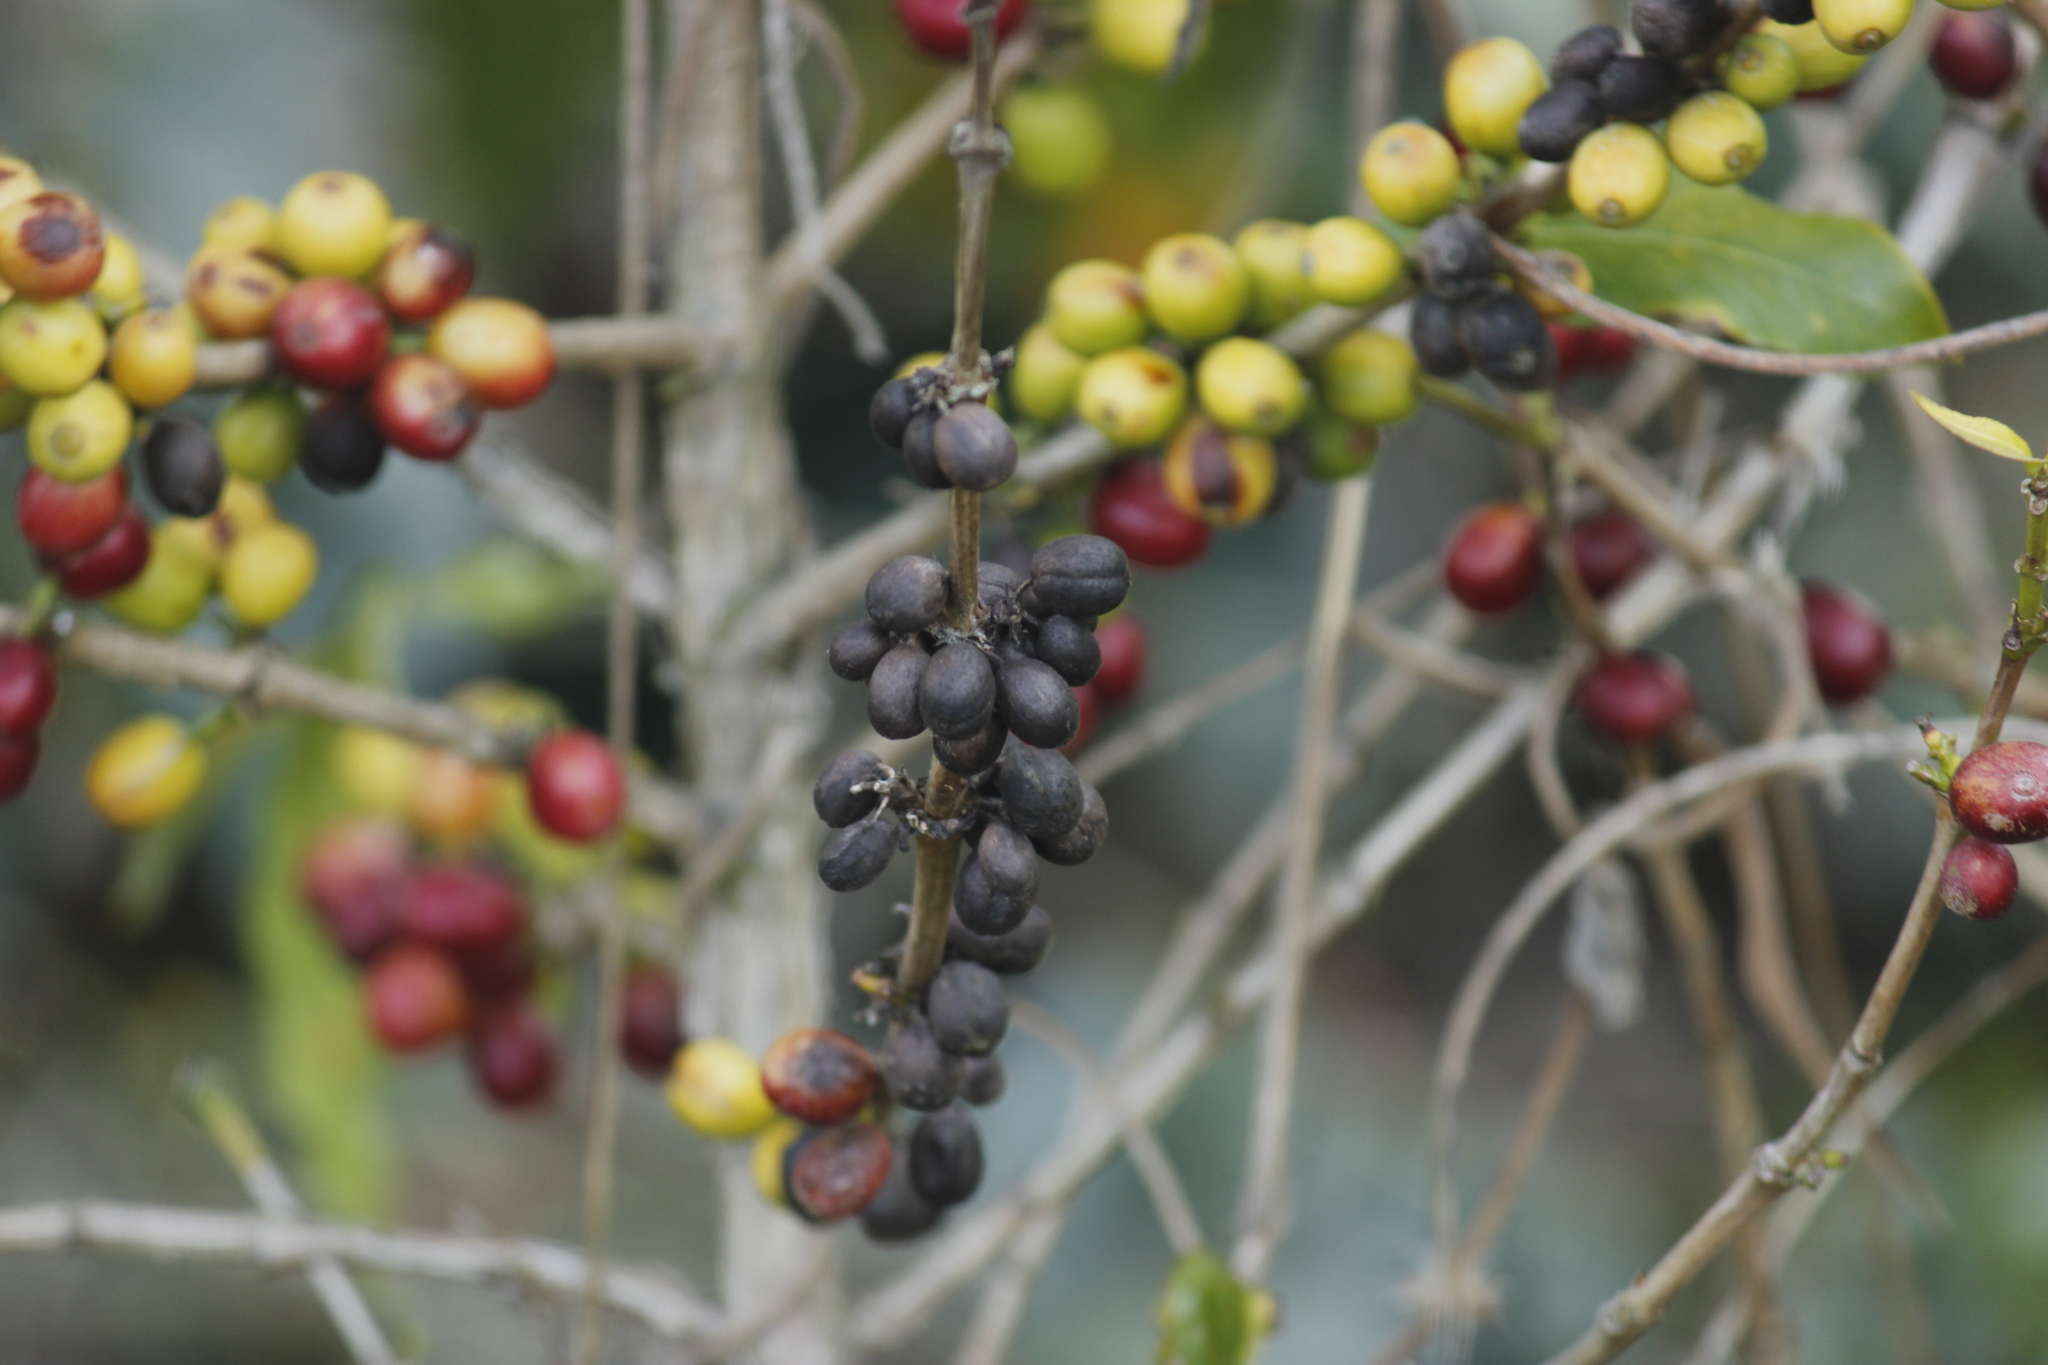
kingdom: Plantae
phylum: Tracheophyta
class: Magnoliopsida
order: Gentianales
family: Rubiaceae
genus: Coffea
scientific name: Coffea arabica
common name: Coffee
